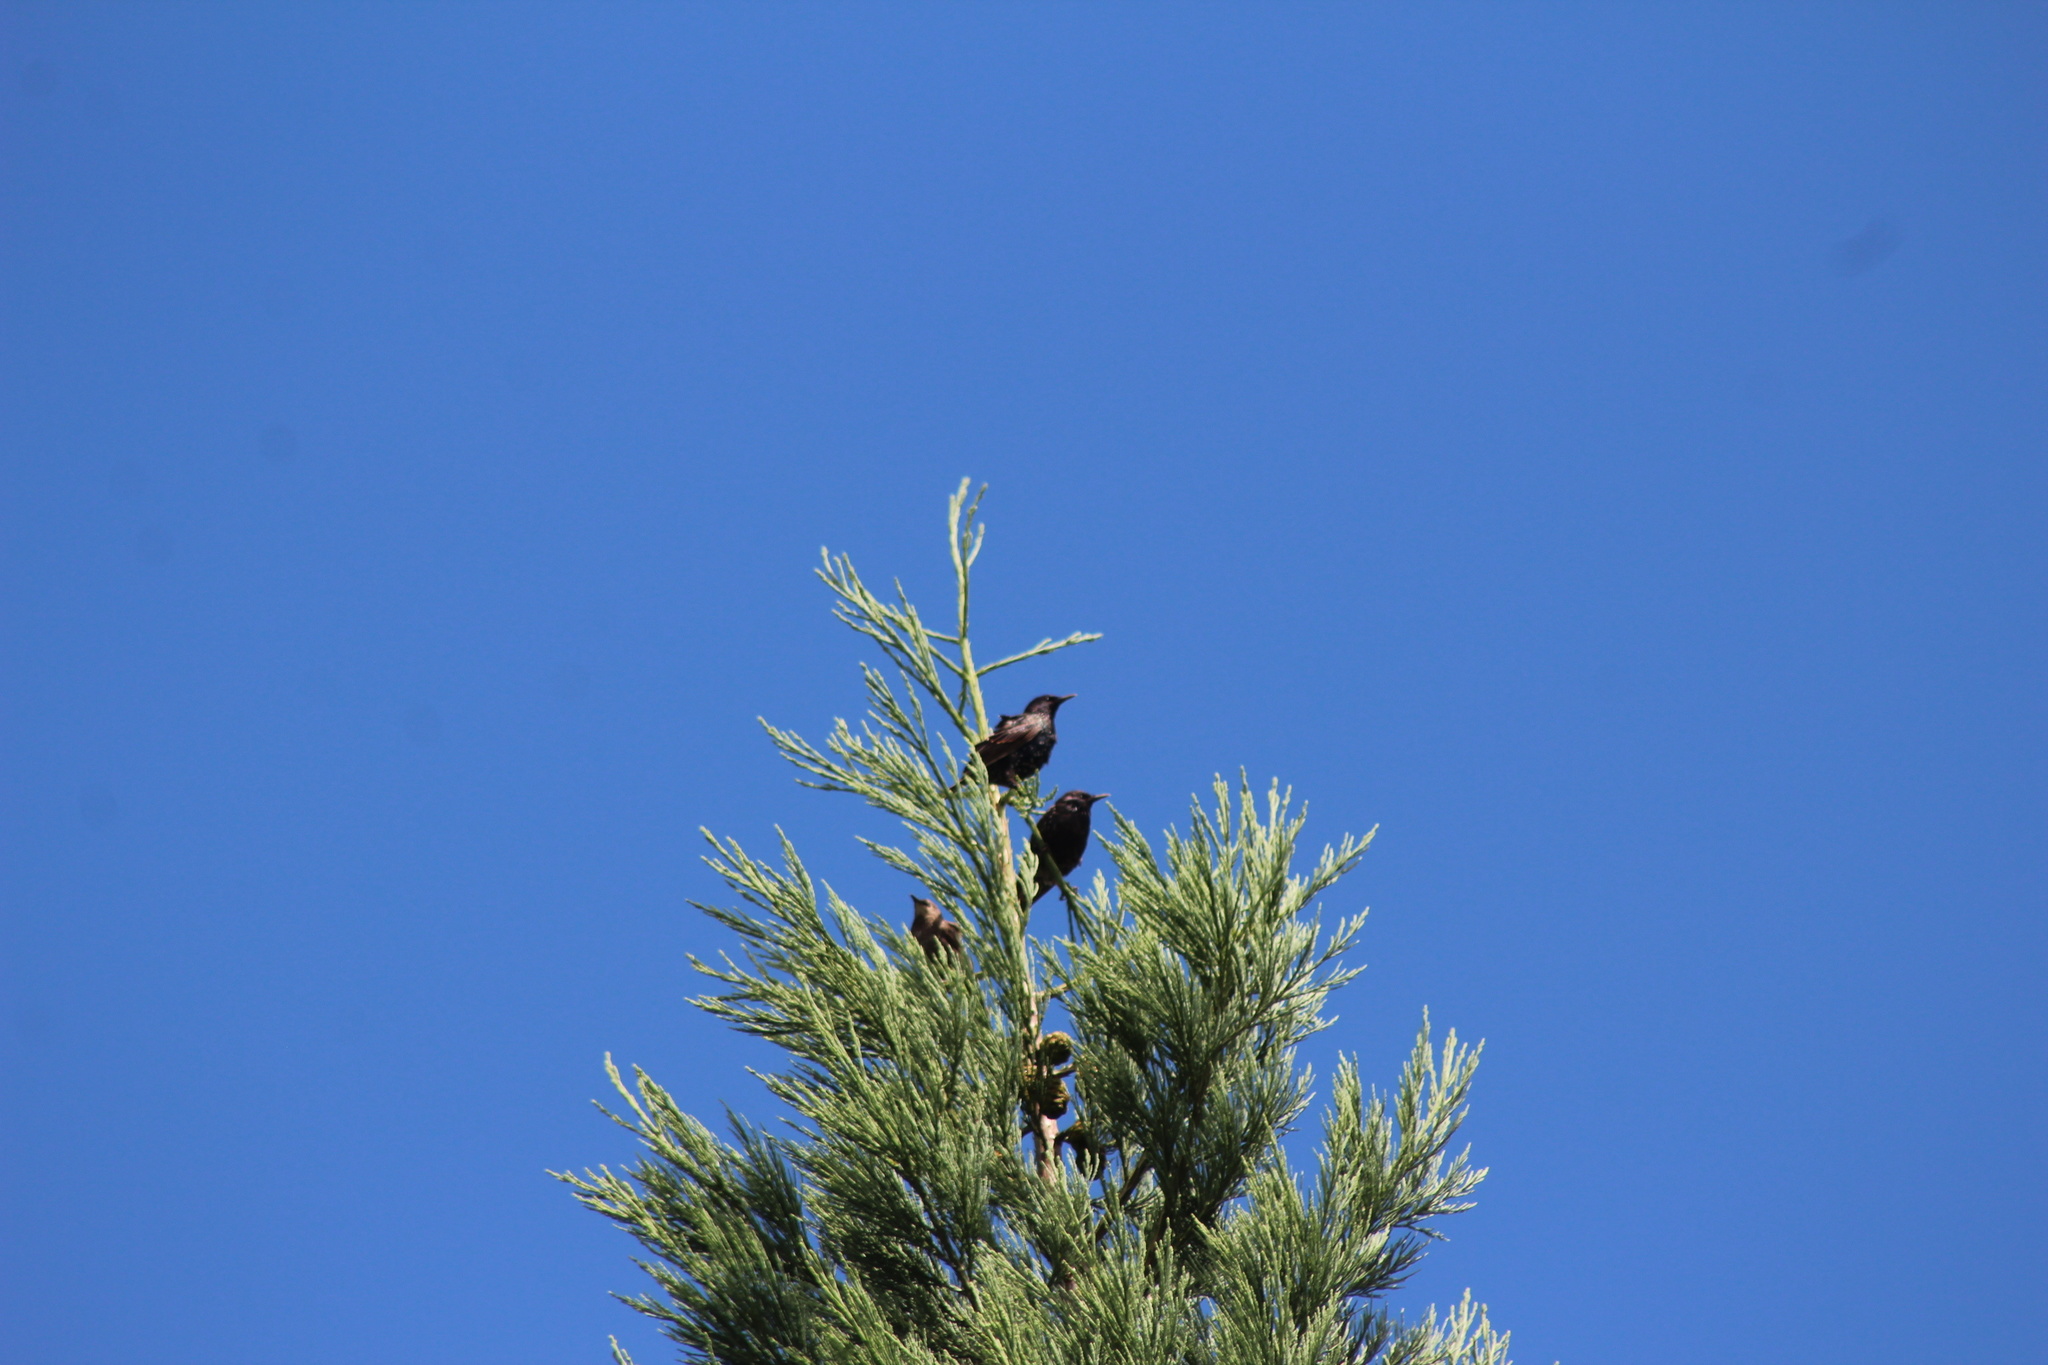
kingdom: Animalia
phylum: Chordata
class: Aves
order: Passeriformes
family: Sturnidae
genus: Sturnus
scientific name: Sturnus vulgaris
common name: Common starling
